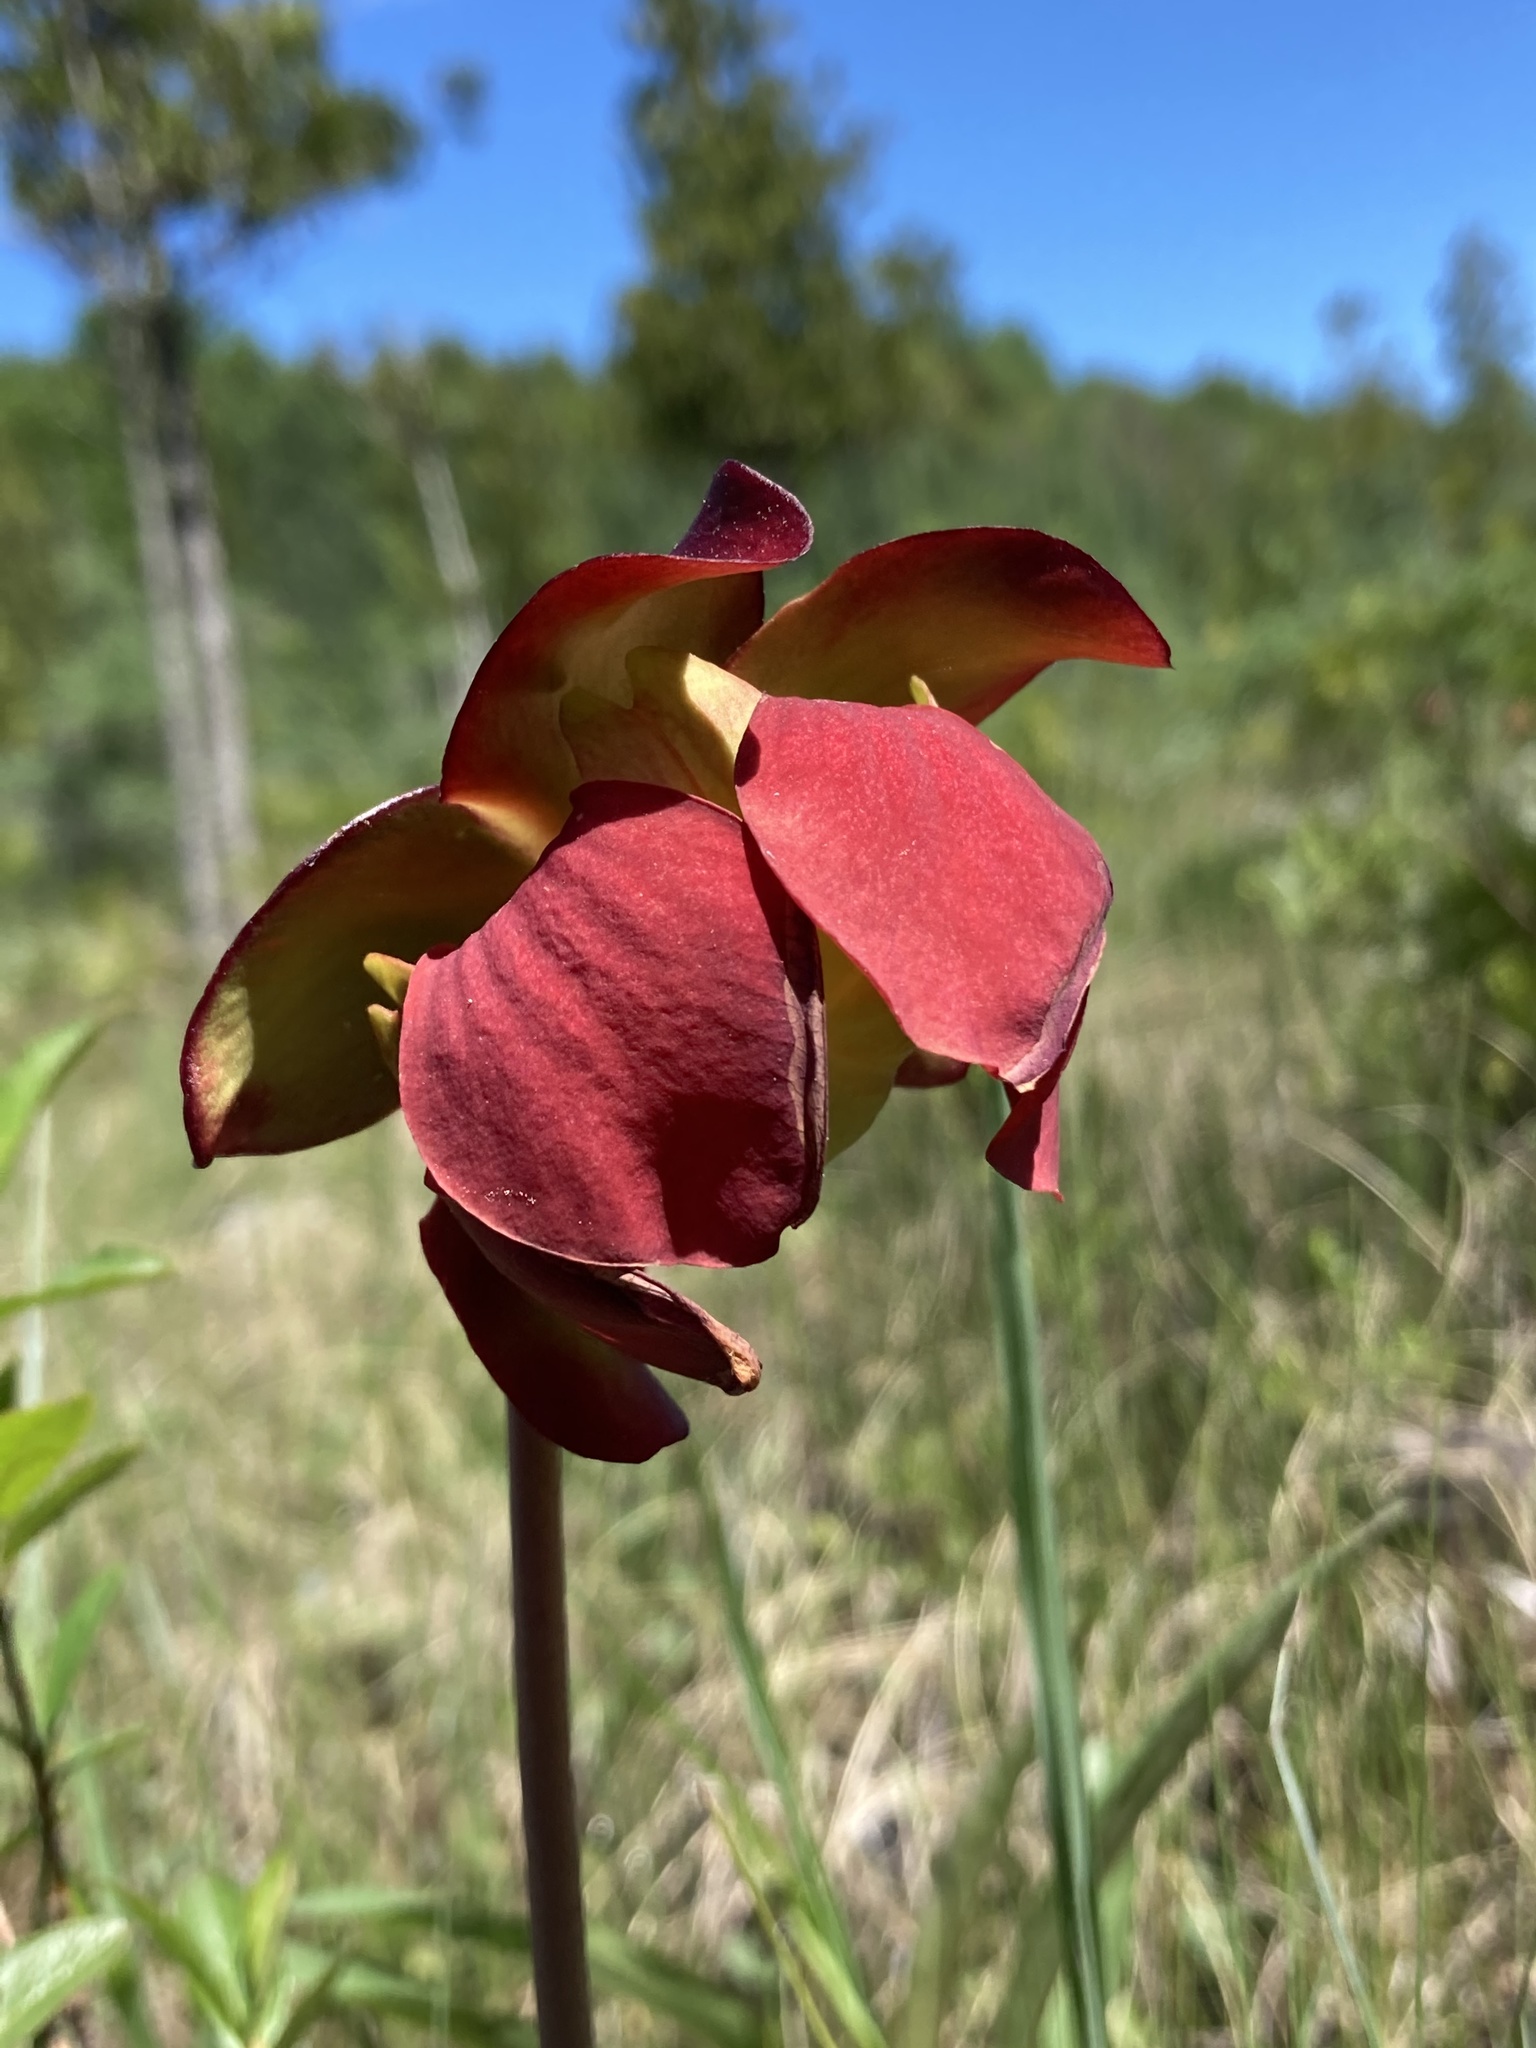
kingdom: Plantae
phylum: Tracheophyta
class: Magnoliopsida
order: Ericales
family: Sarraceniaceae
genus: Sarracenia
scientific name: Sarracenia purpurea
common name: Pitcherplant
